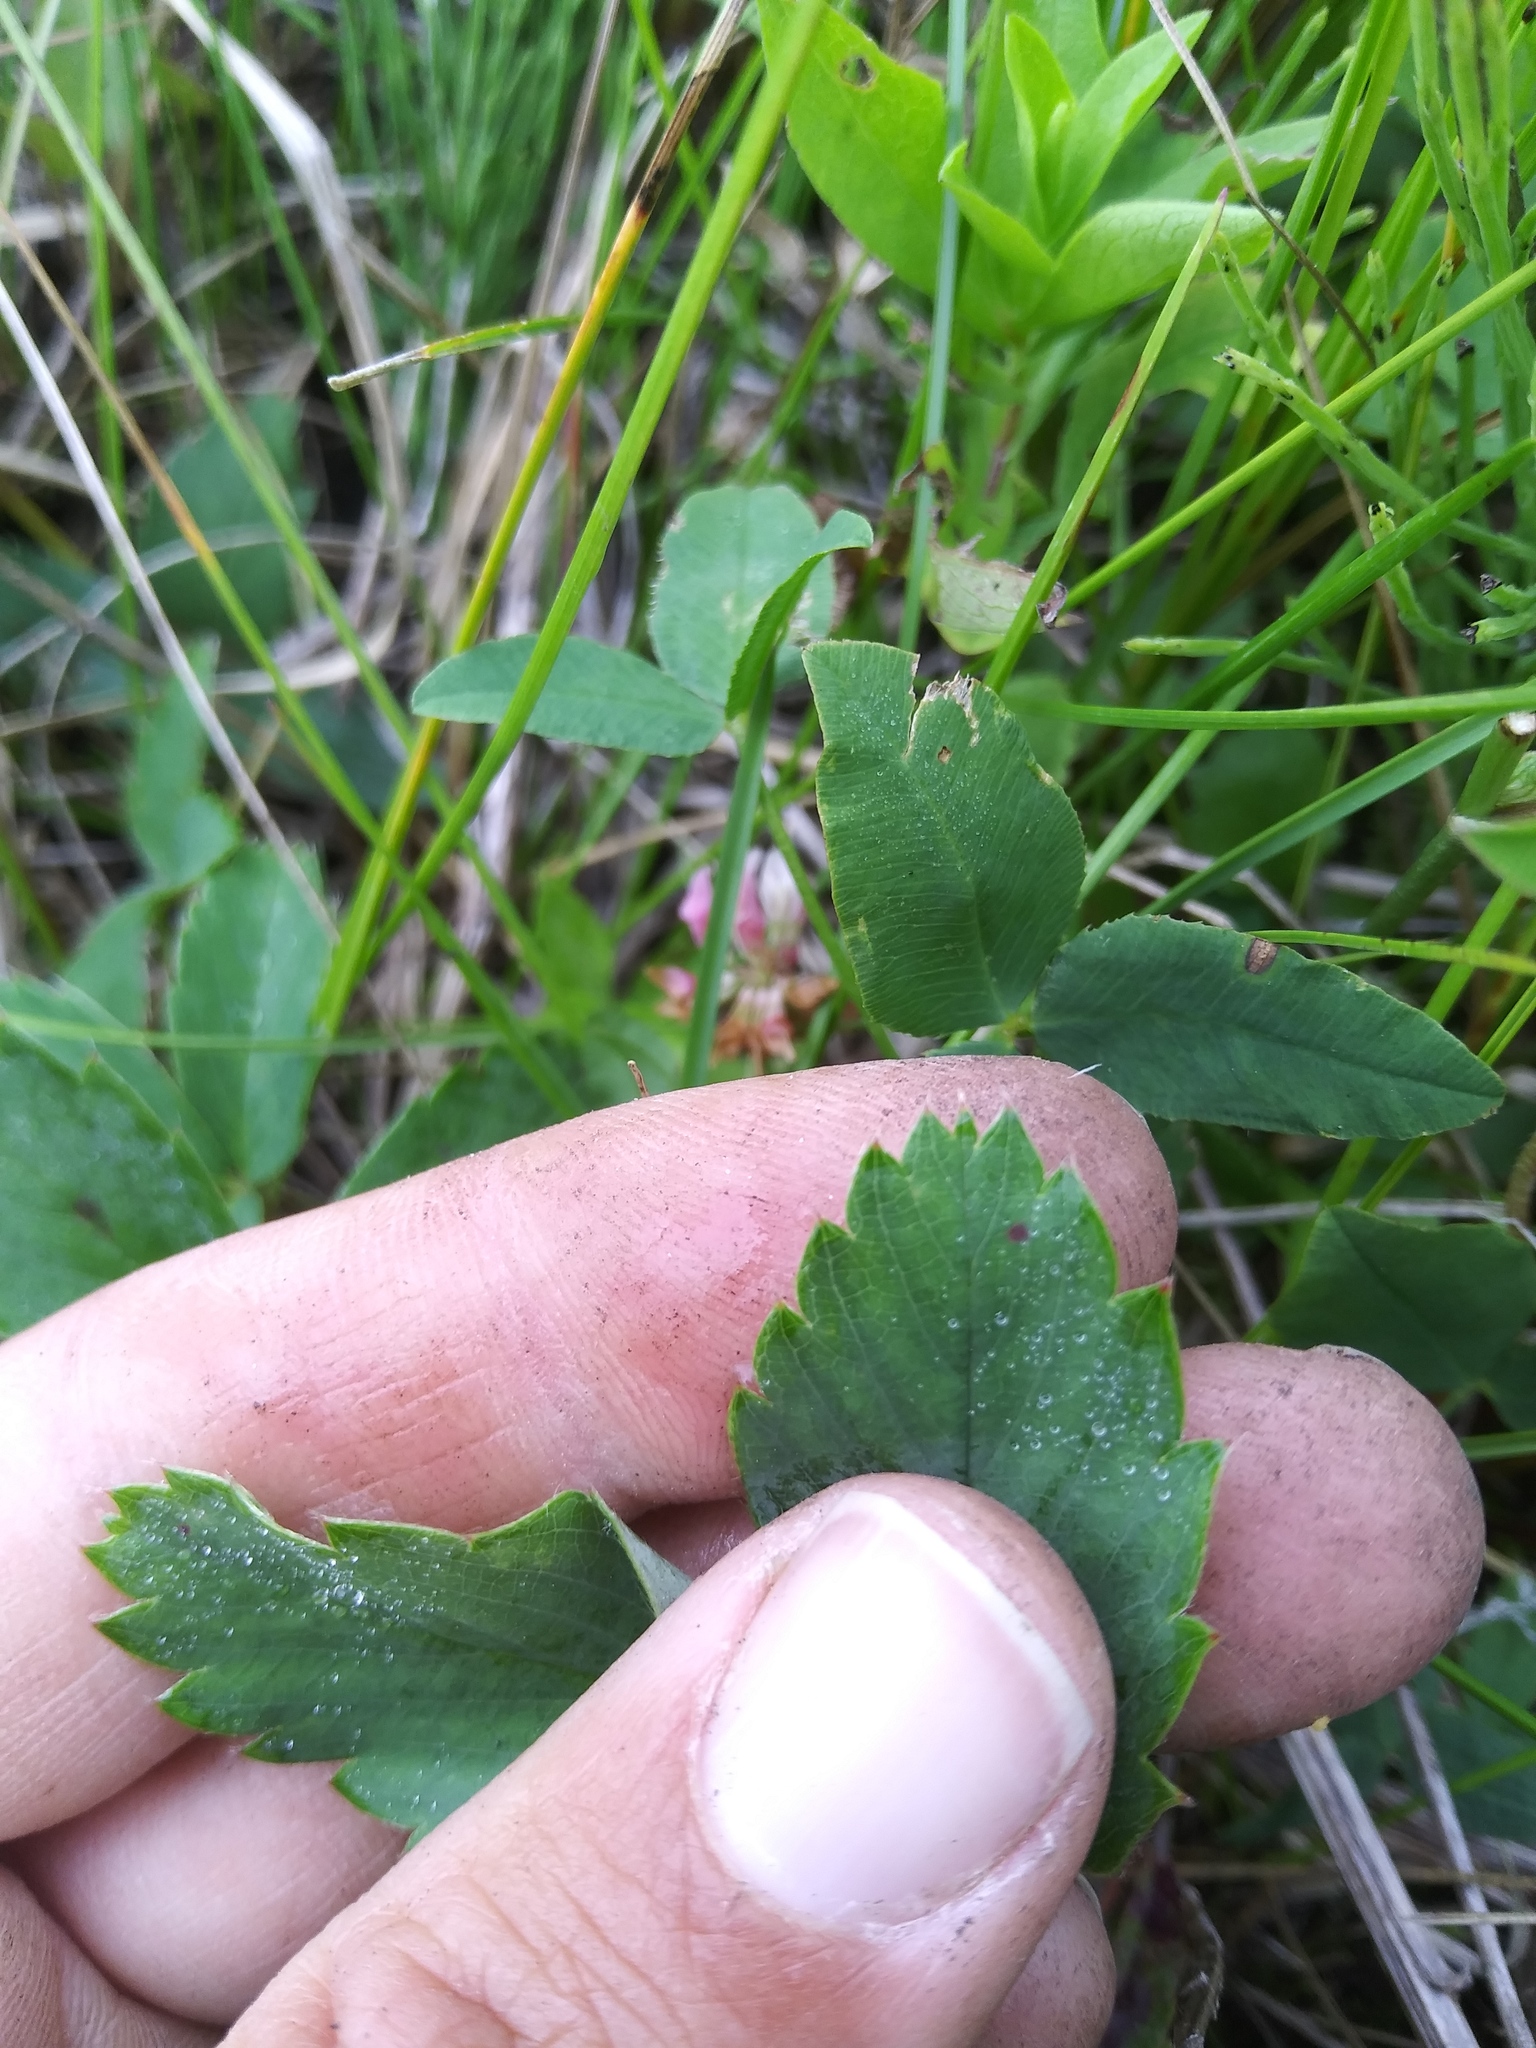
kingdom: Plantae
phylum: Tracheophyta
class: Magnoliopsida
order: Rosales
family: Rosaceae
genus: Fragaria
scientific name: Fragaria virginiana
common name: Thickleaved wild strawberry
